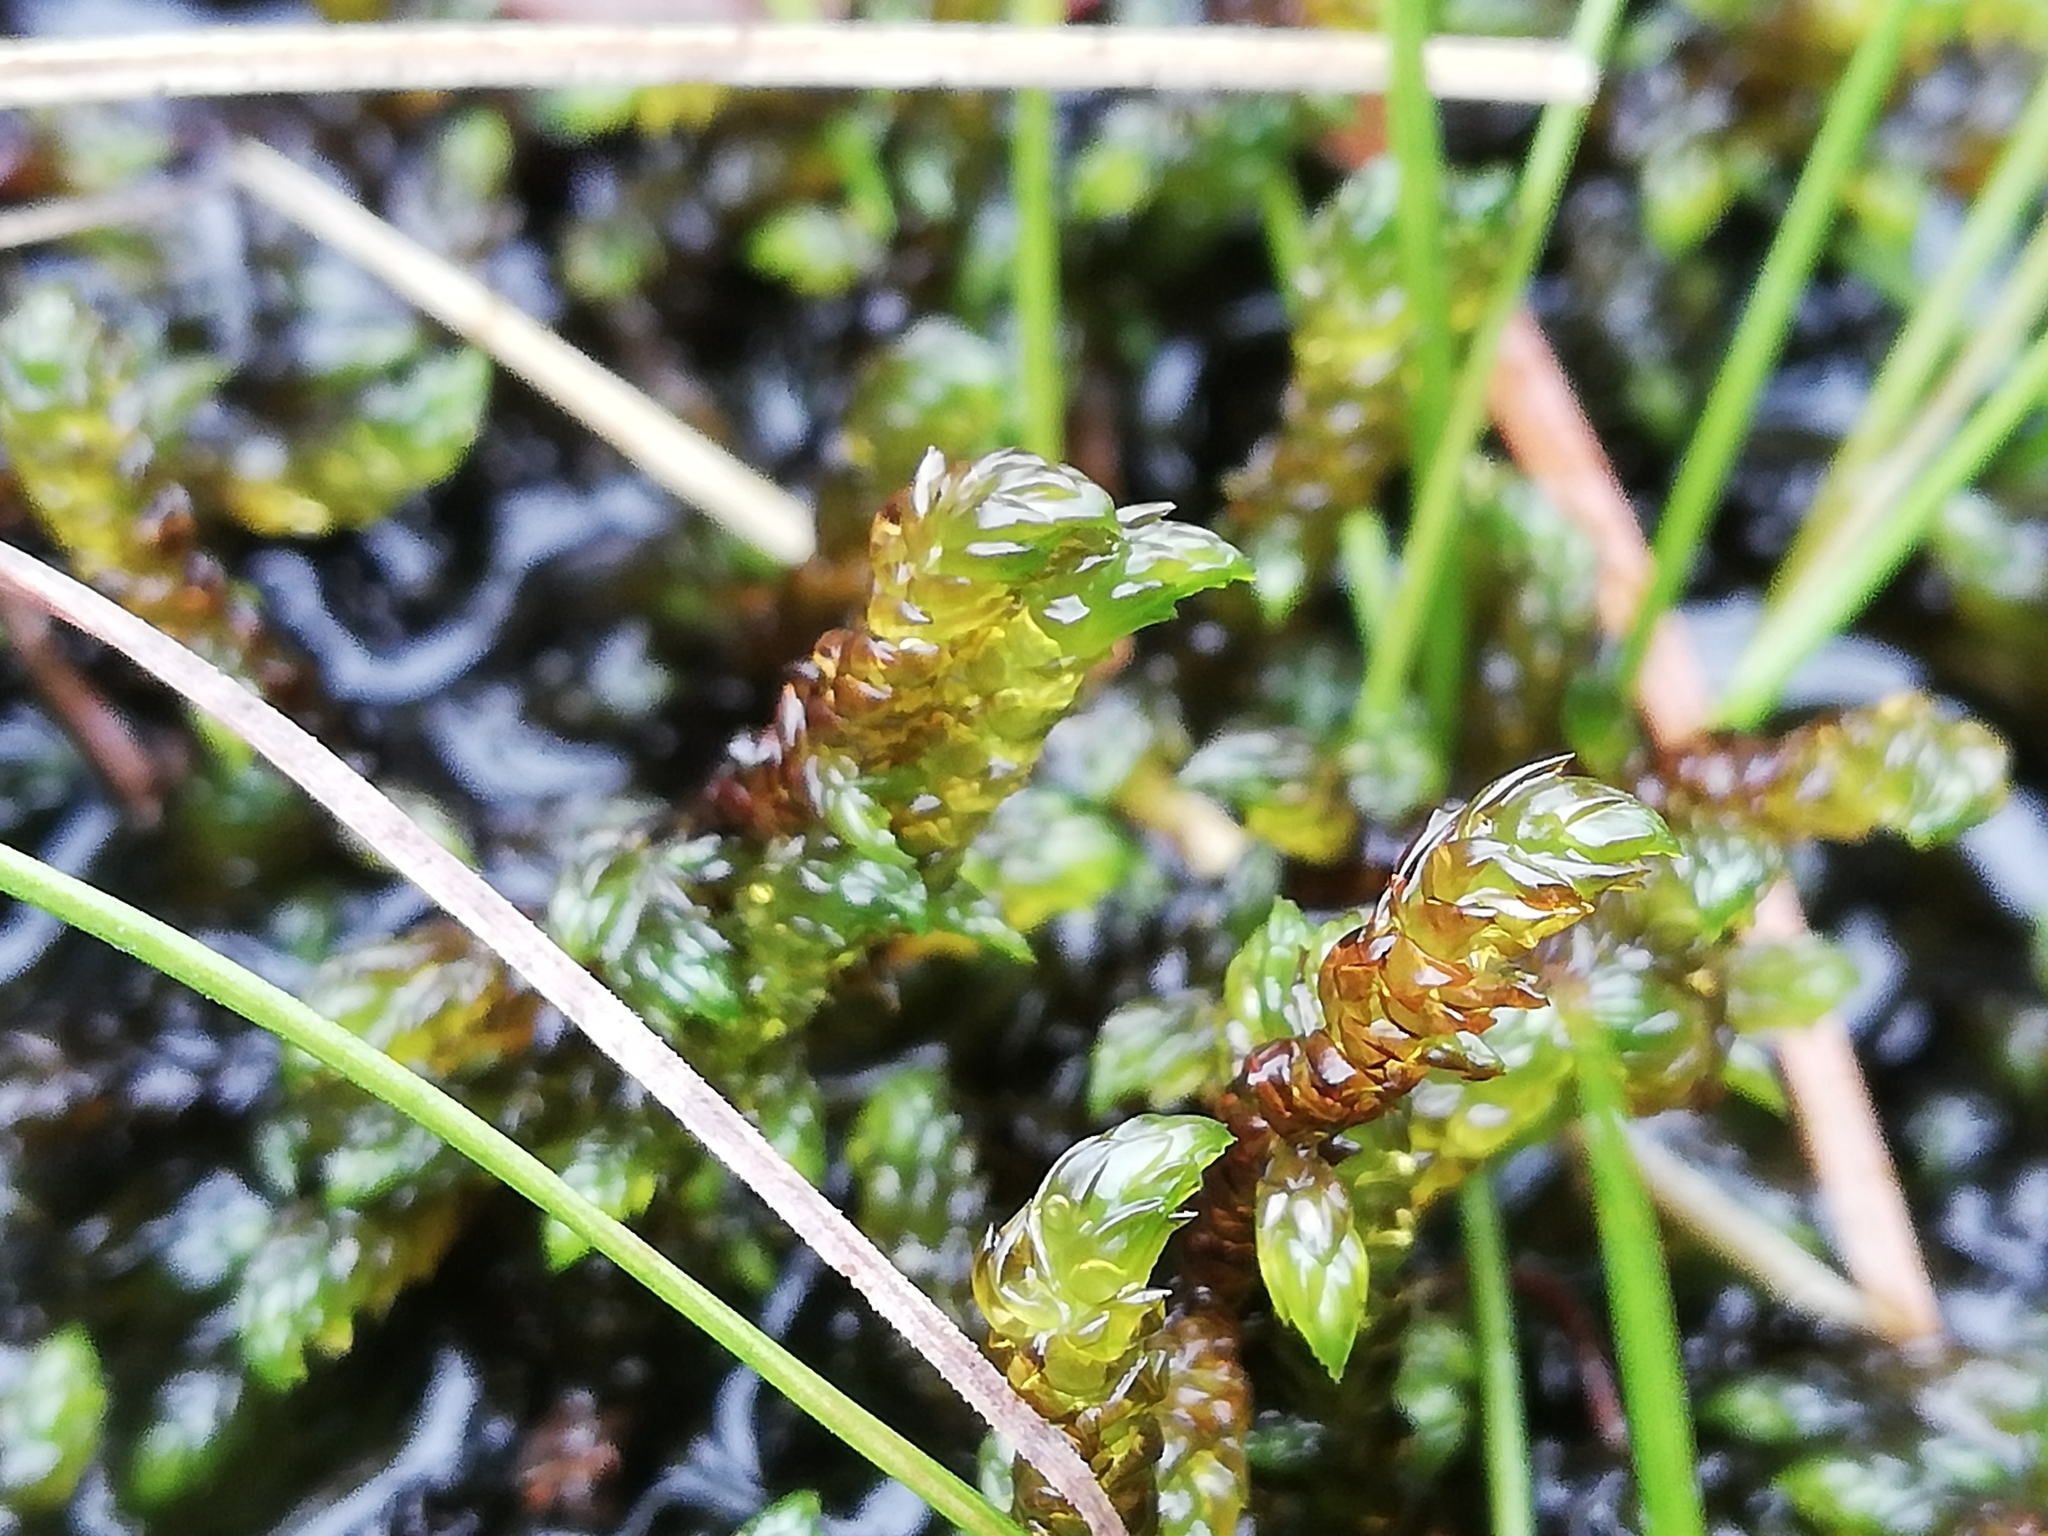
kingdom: Plantae
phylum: Bryophyta
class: Bryopsida
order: Hypnales
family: Scorpidiaceae
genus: Scorpidium
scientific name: Scorpidium scorpioides
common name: Hooked scorpion moss
